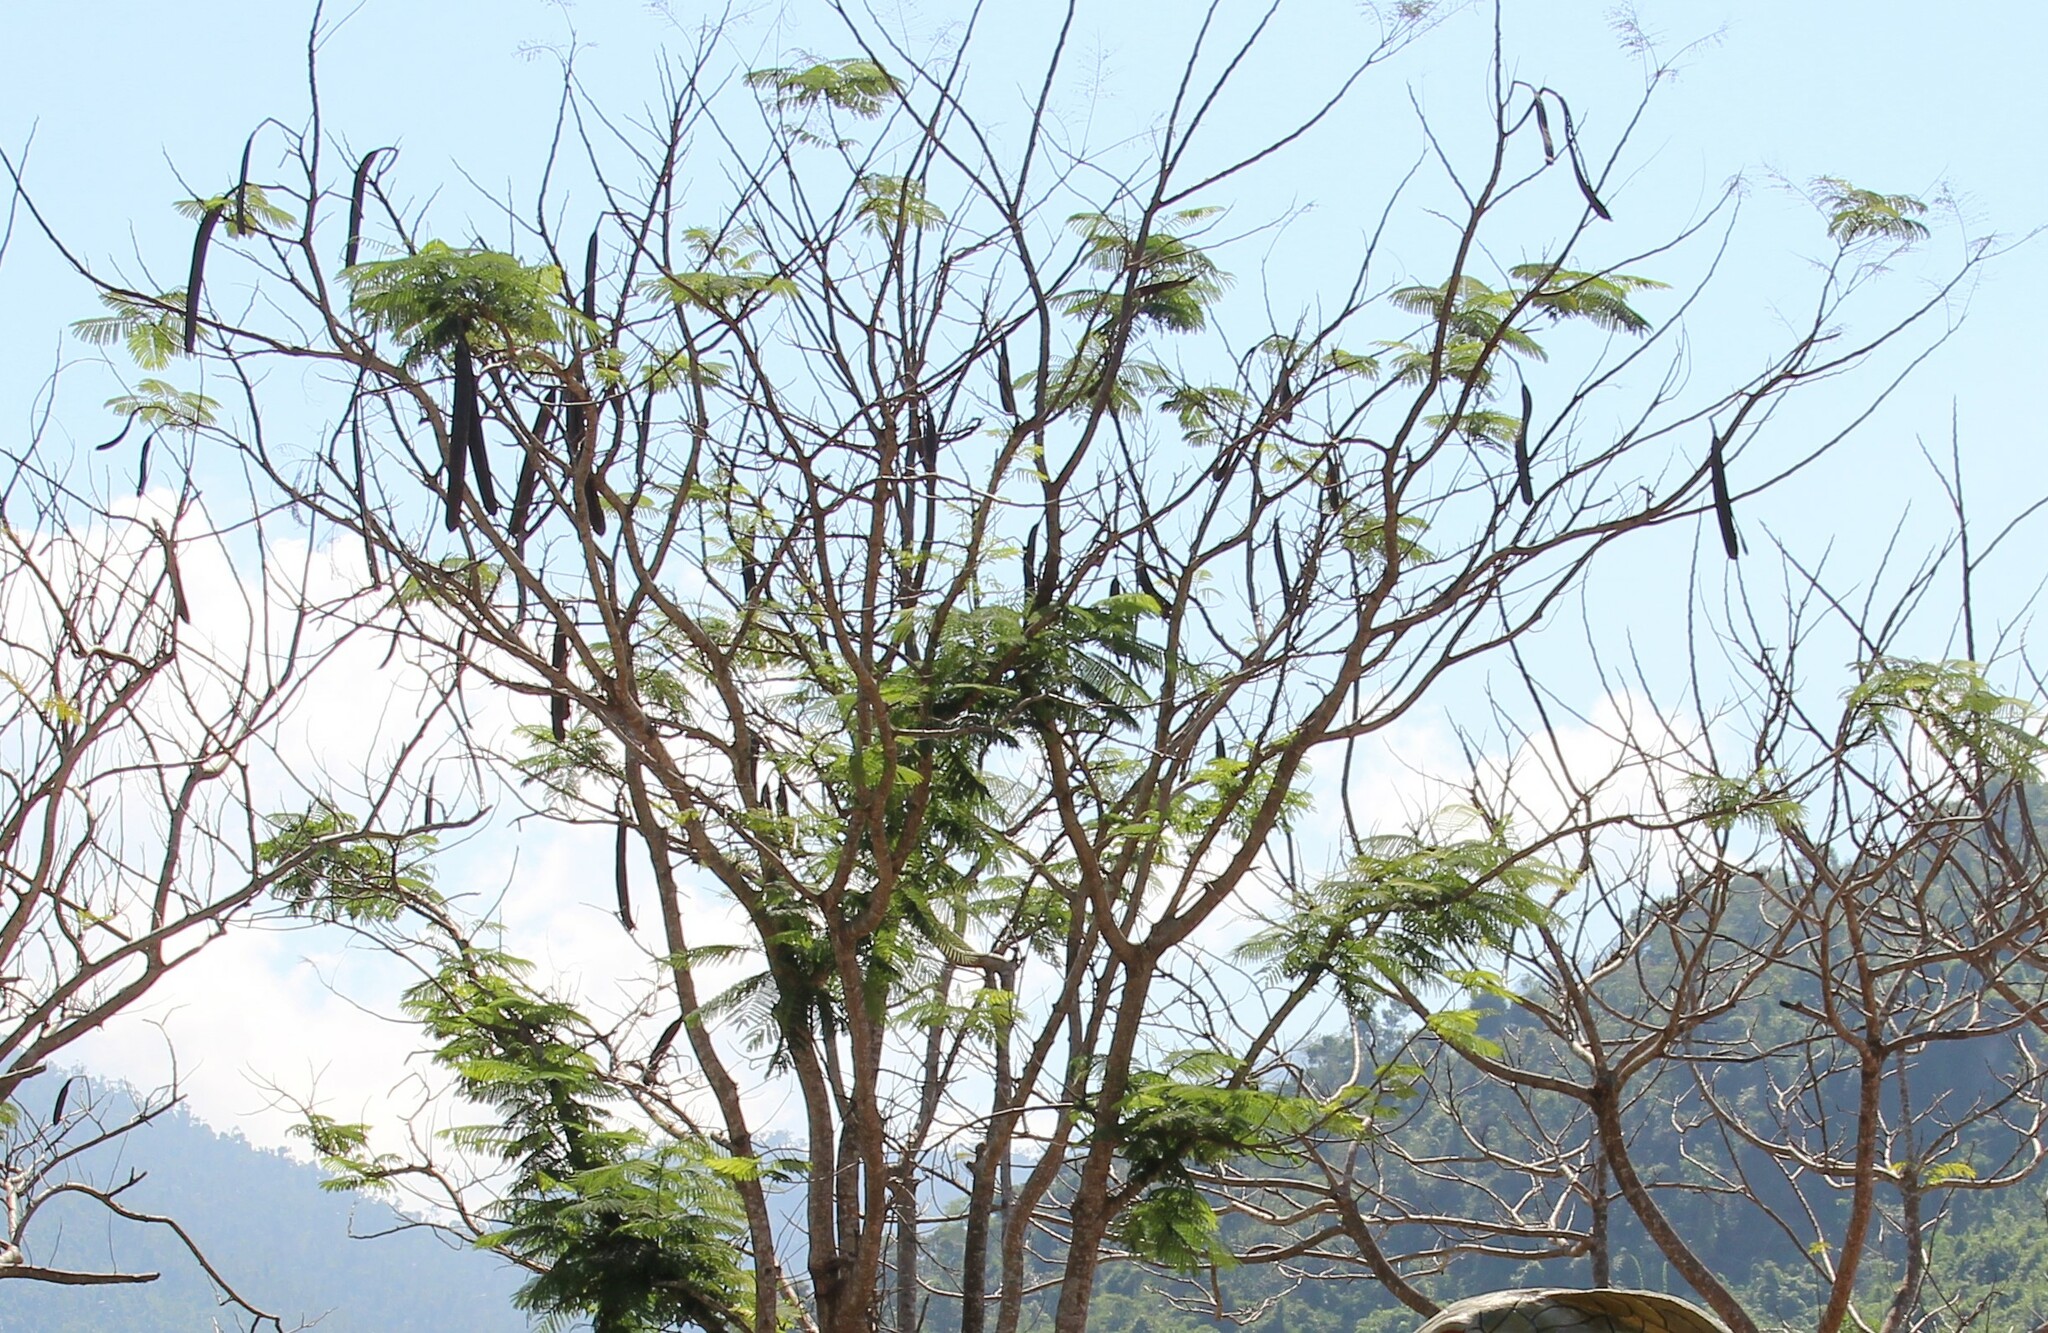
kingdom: Plantae
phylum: Tracheophyta
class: Magnoliopsida
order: Fabales
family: Fabaceae
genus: Delonix
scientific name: Delonix regia
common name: Royal poinciana
